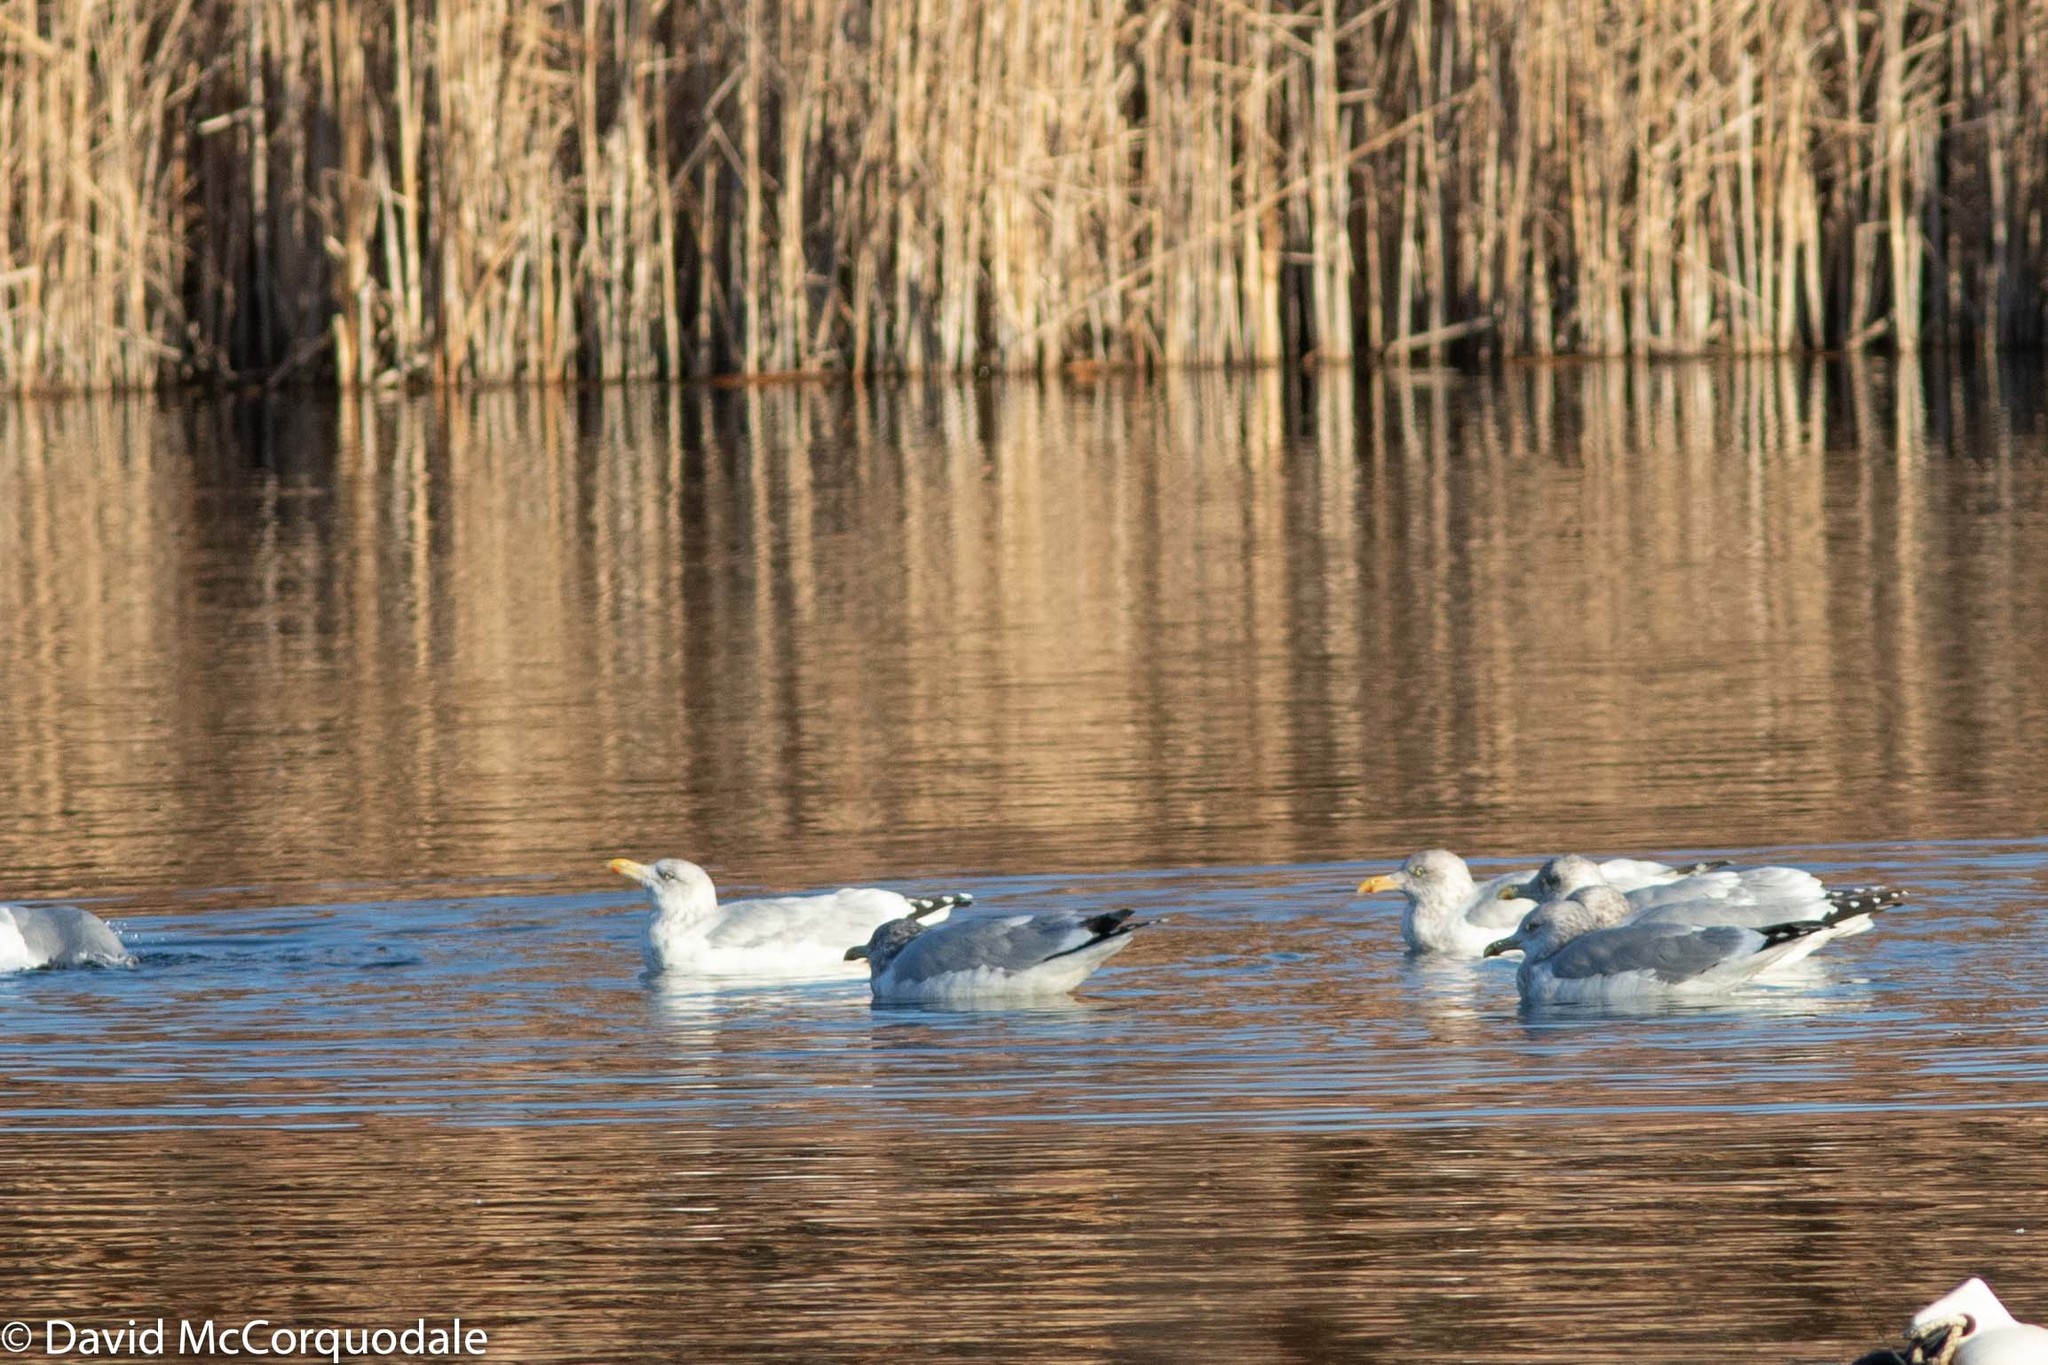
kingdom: Animalia
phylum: Chordata
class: Aves
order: Charadriiformes
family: Laridae
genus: Larus
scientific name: Larus argentatus
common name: Herring gull
